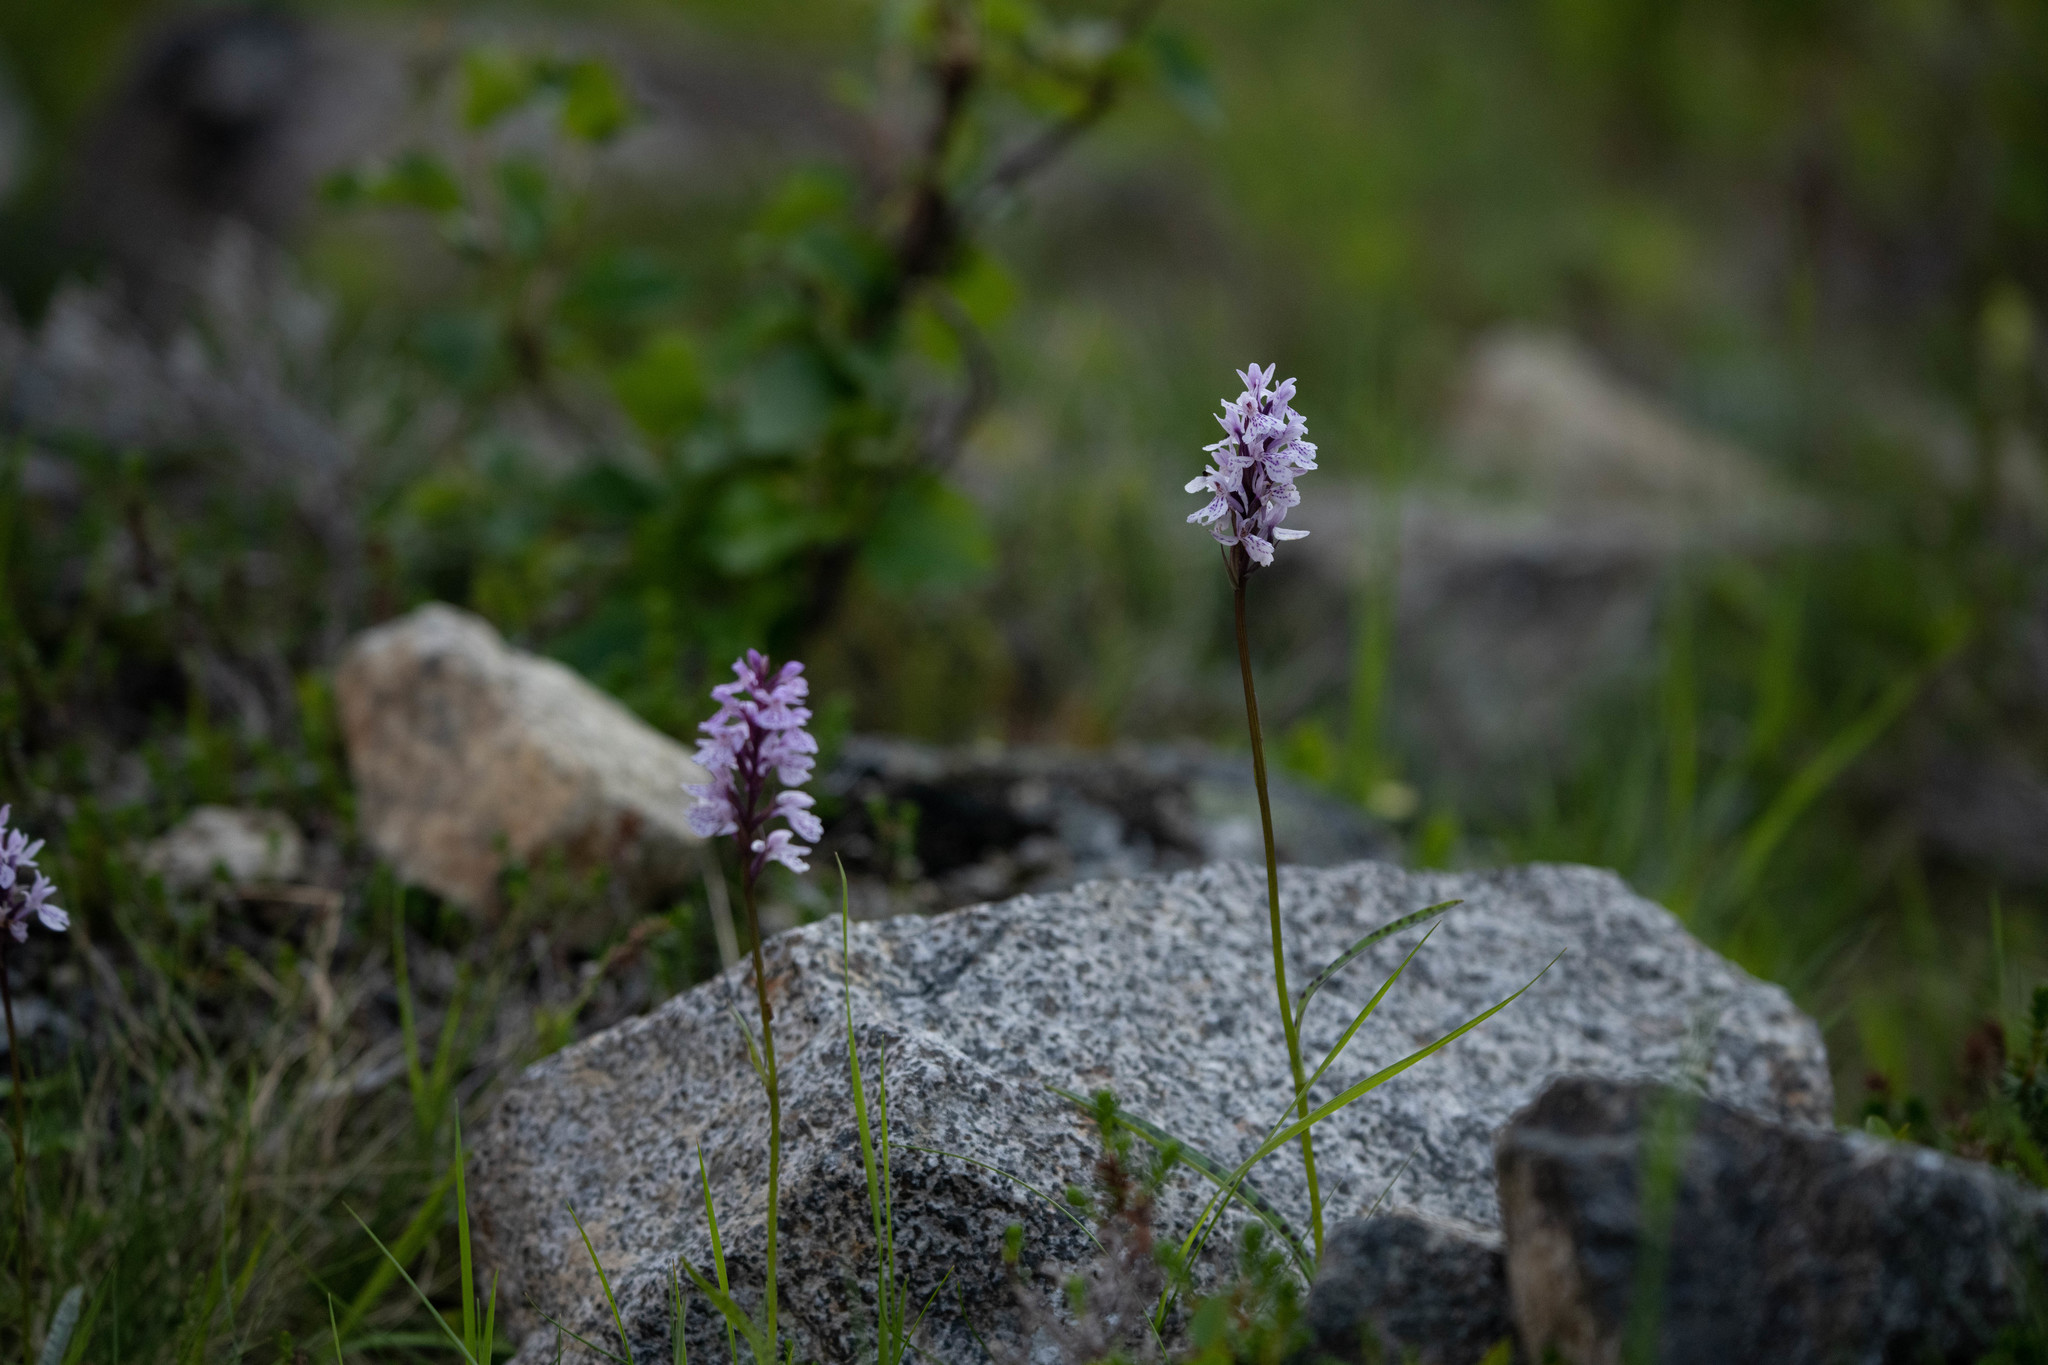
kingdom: Plantae
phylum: Tracheophyta
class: Liliopsida
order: Asparagales
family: Orchidaceae
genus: Dactylorhiza
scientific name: Dactylorhiza maculata
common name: Heath spotted-orchid
